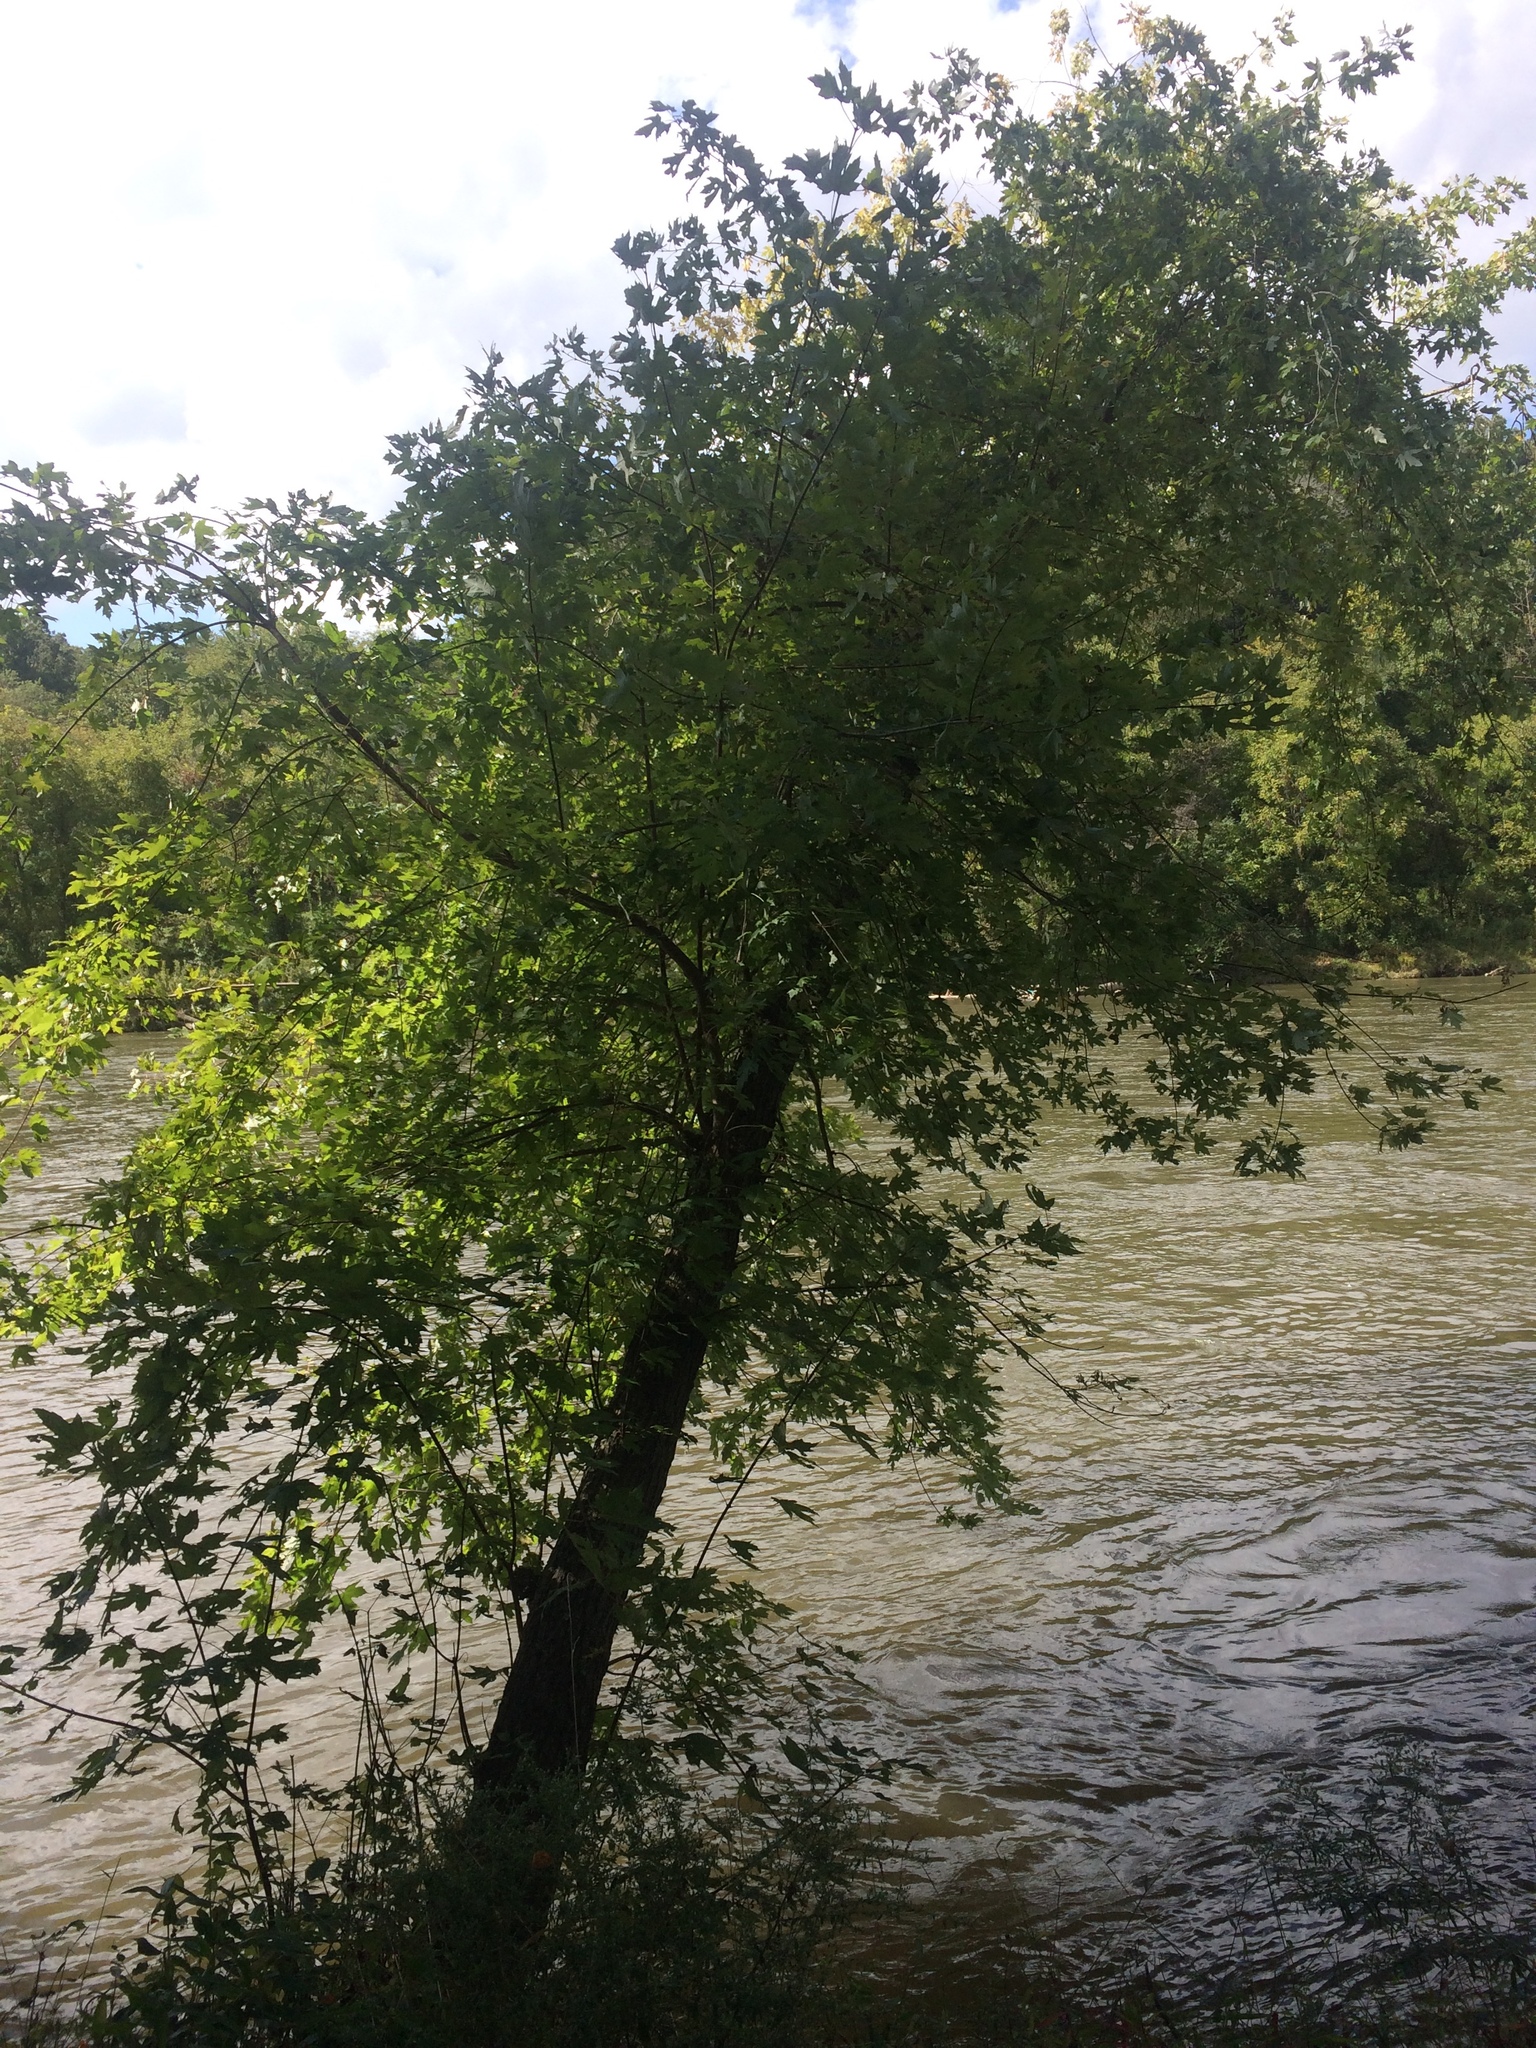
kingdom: Plantae
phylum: Tracheophyta
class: Magnoliopsida
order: Sapindales
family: Sapindaceae
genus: Acer
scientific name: Acer saccharinum
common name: Silver maple
